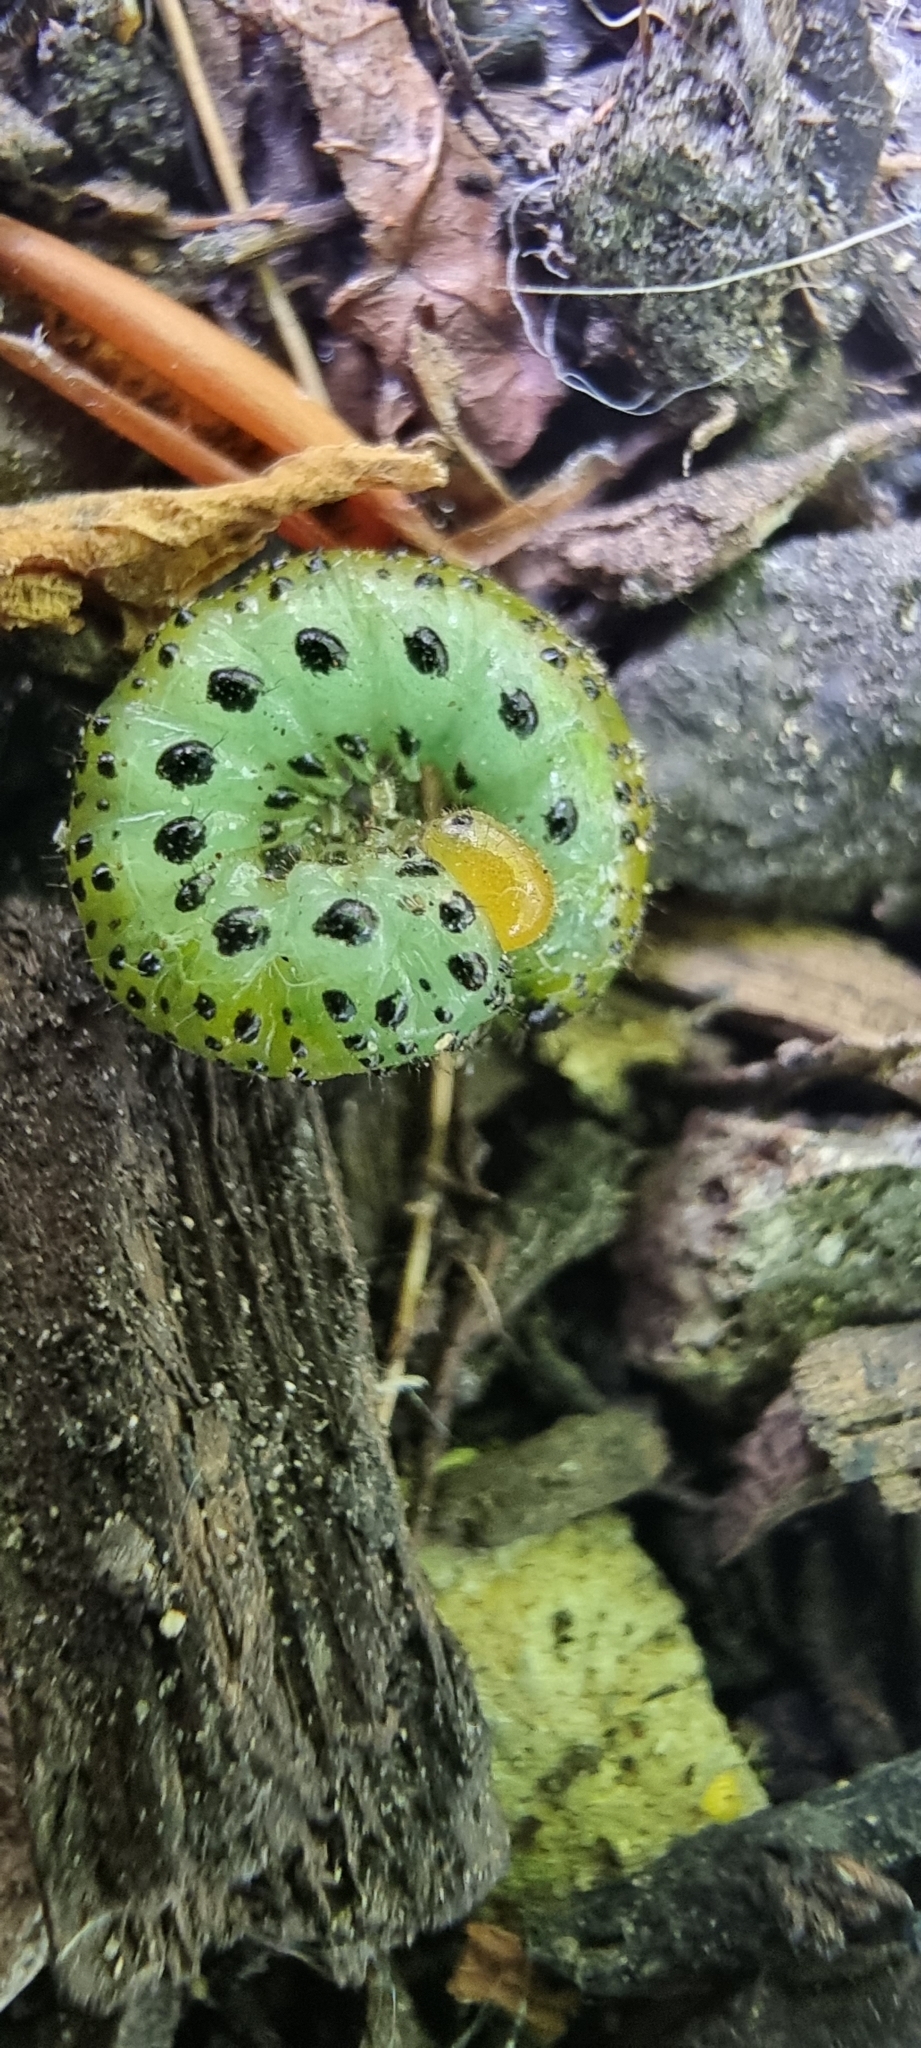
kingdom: Animalia
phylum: Arthropoda
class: Insecta
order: Hymenoptera
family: Argidae
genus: Arge
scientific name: Arge ochropus
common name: Argid sawfly
